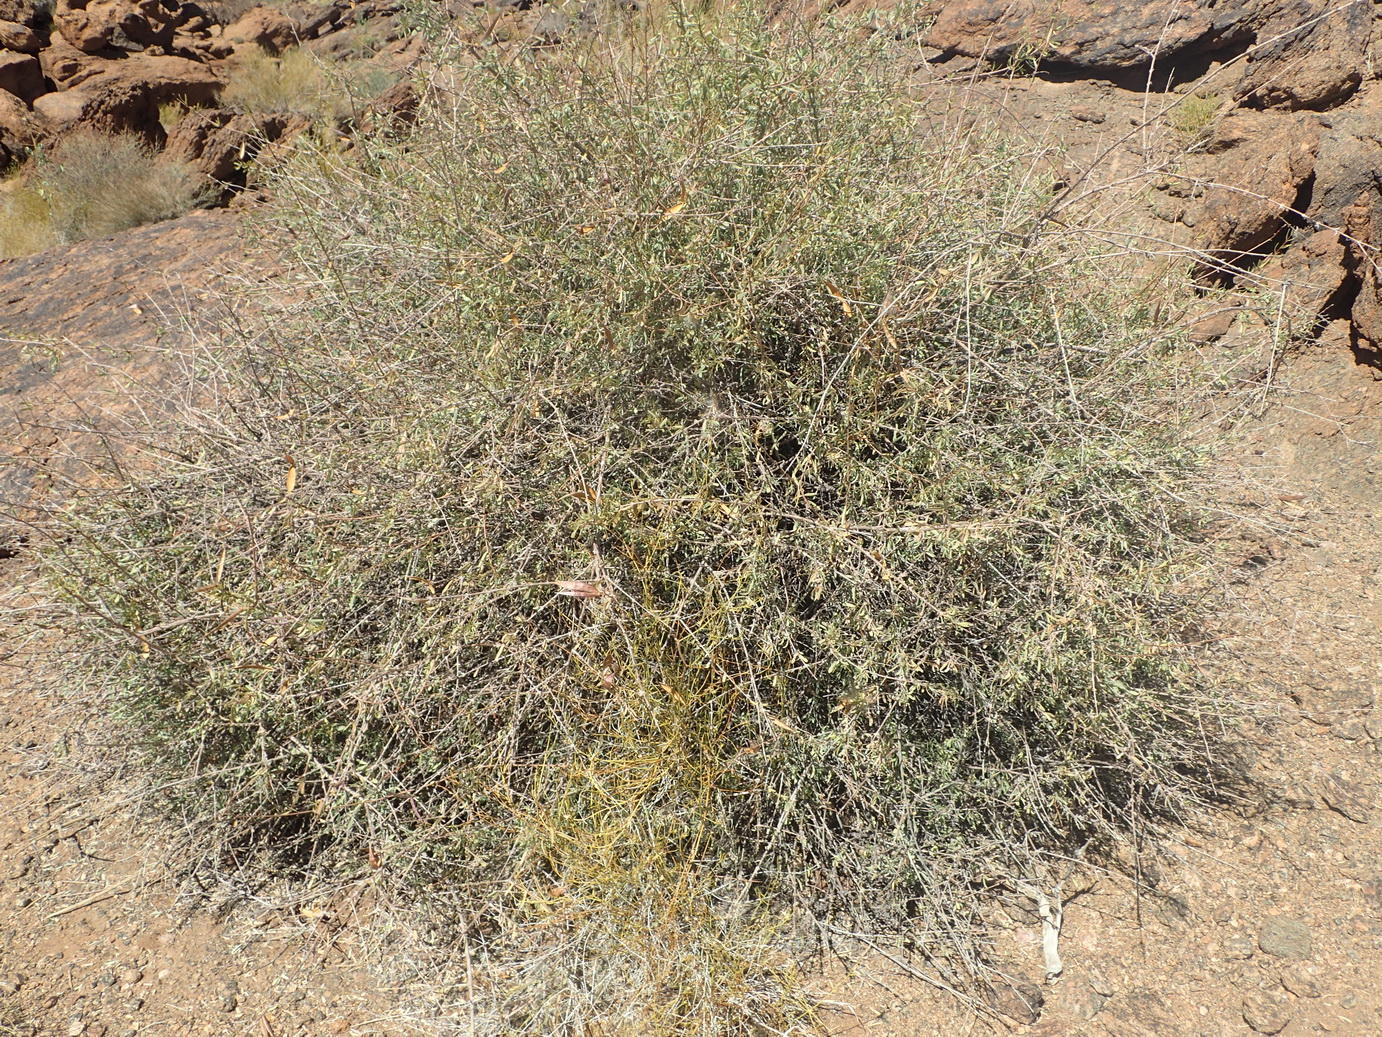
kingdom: Plantae
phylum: Tracheophyta
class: Magnoliopsida
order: Gentianales
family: Apocynaceae
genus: Cryptolepis
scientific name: Cryptolepis decidua
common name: Jackalplant
